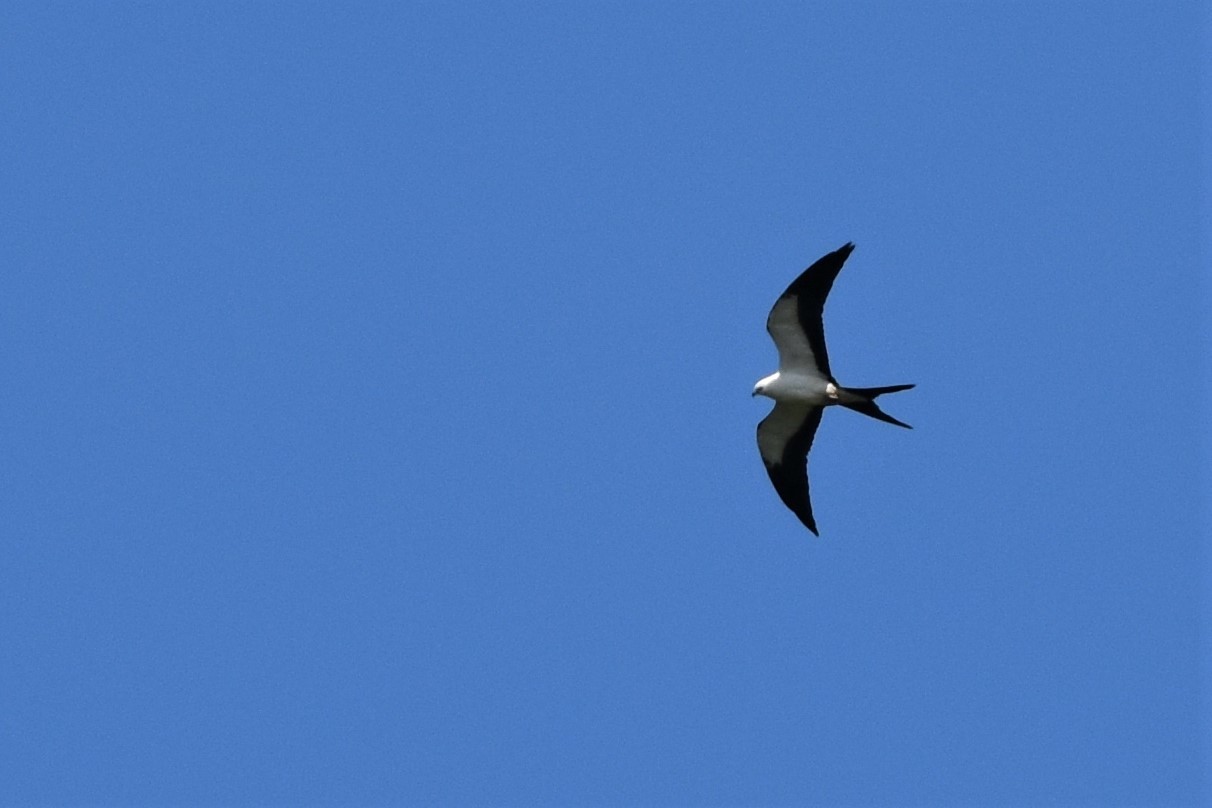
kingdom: Animalia
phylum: Chordata
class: Aves
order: Accipitriformes
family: Accipitridae
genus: Elanoides
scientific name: Elanoides forficatus
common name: Swallow-tailed kite
